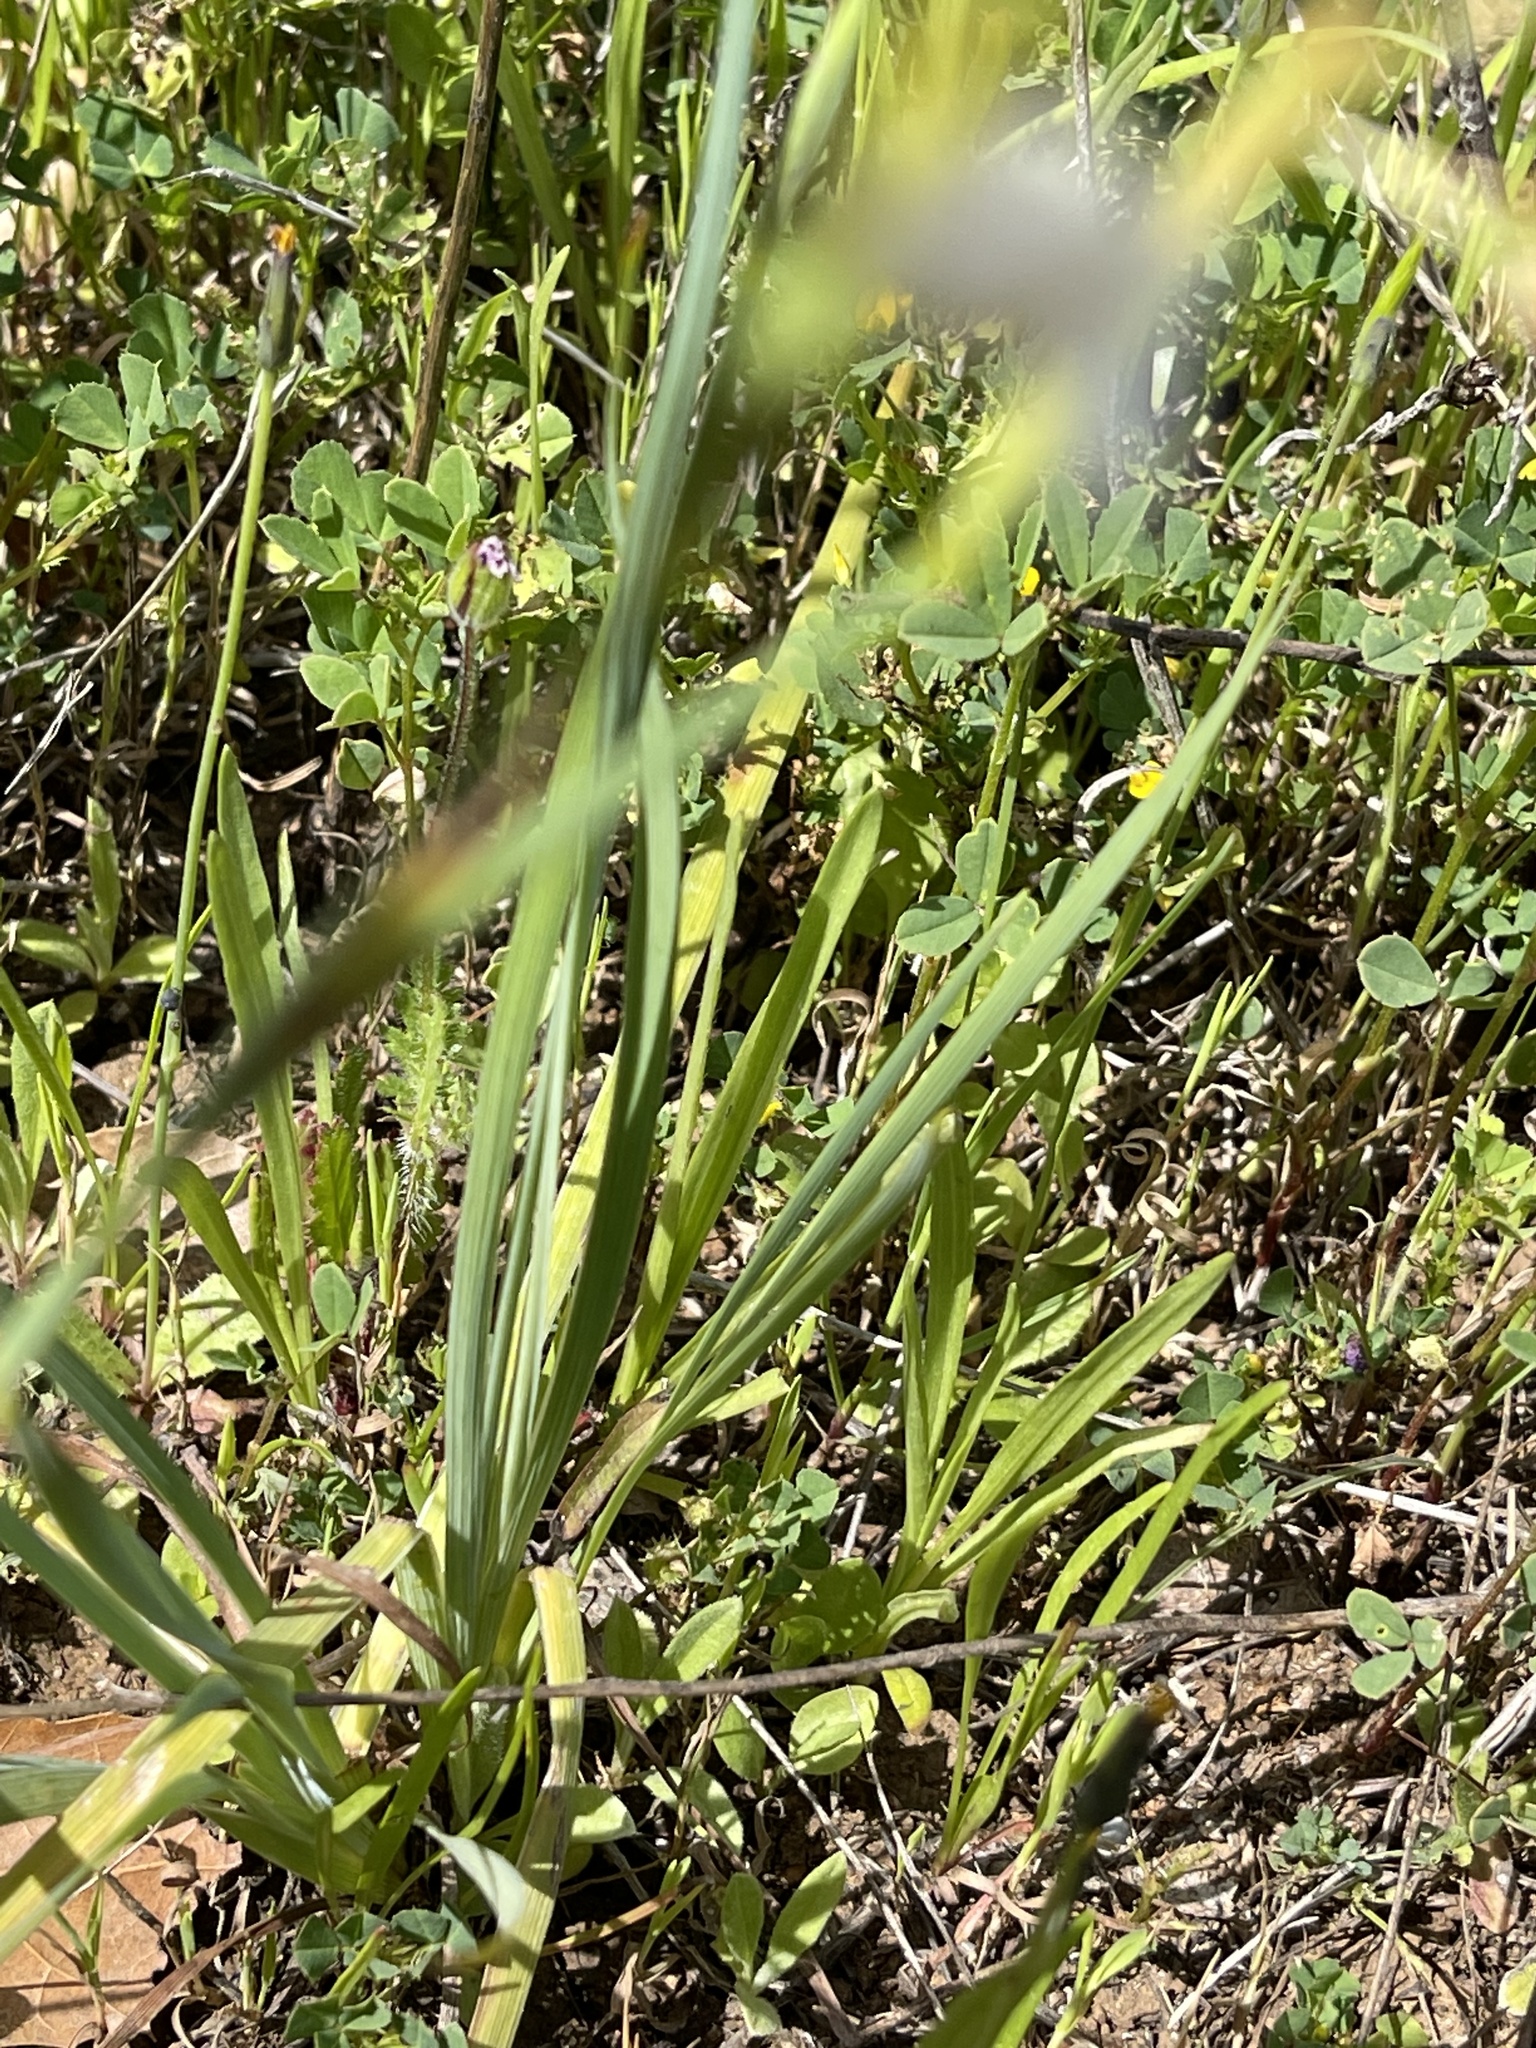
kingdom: Plantae
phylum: Tracheophyta
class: Liliopsida
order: Asparagales
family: Iridaceae
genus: Sisyrinchium
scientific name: Sisyrinchium bellum
